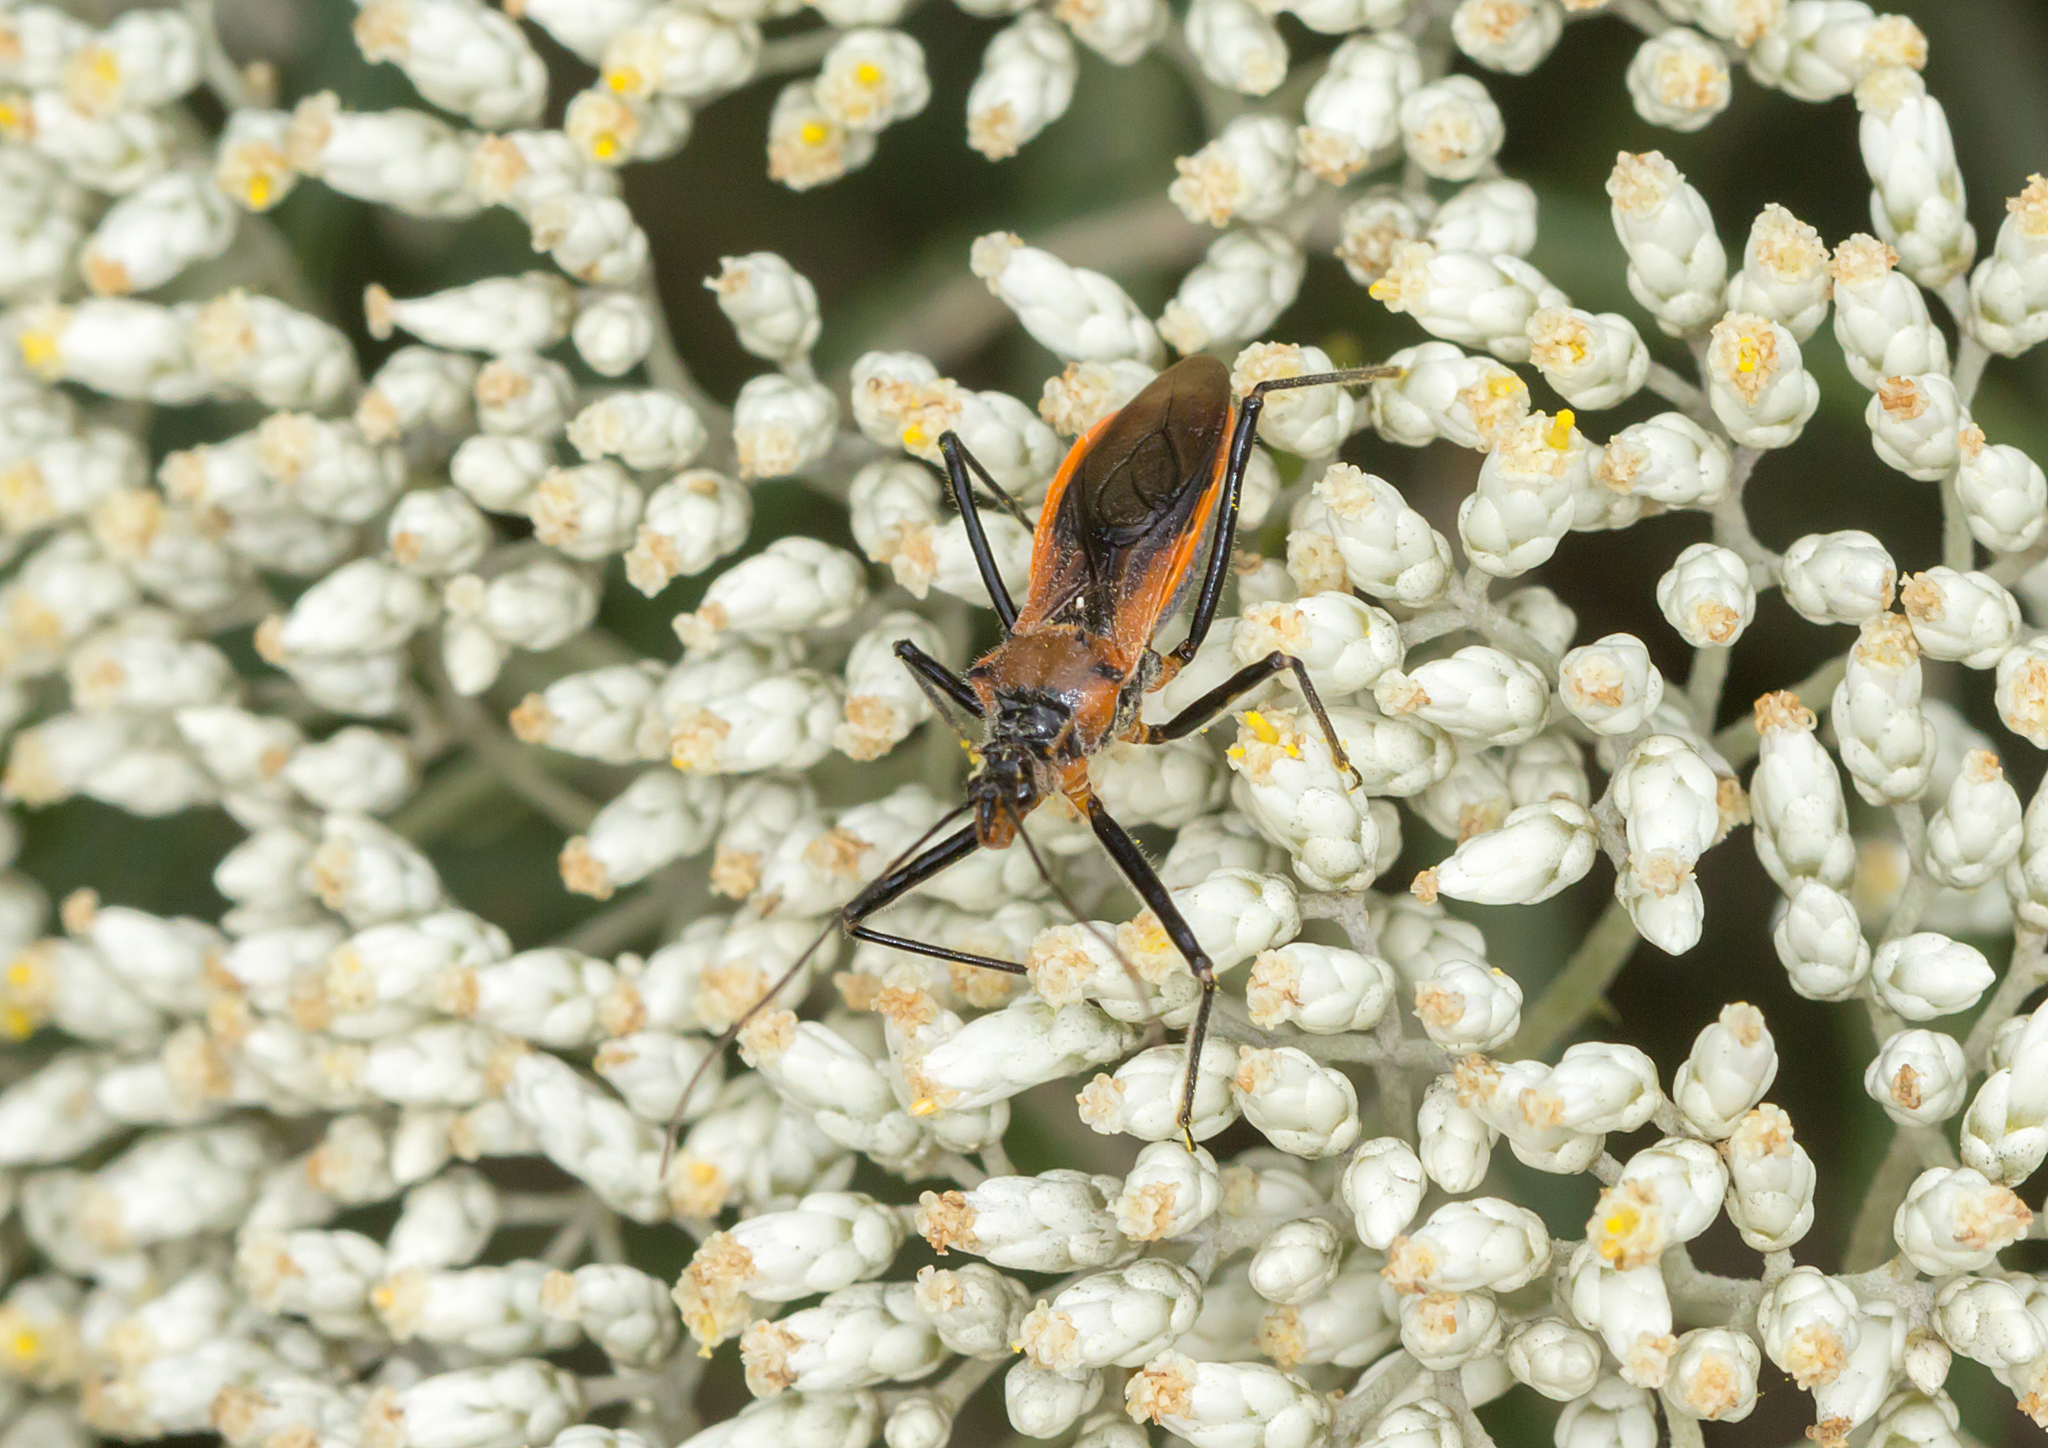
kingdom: Animalia
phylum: Arthropoda
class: Insecta
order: Hemiptera
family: Reduviidae
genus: Gminatus
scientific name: Gminatus australis
